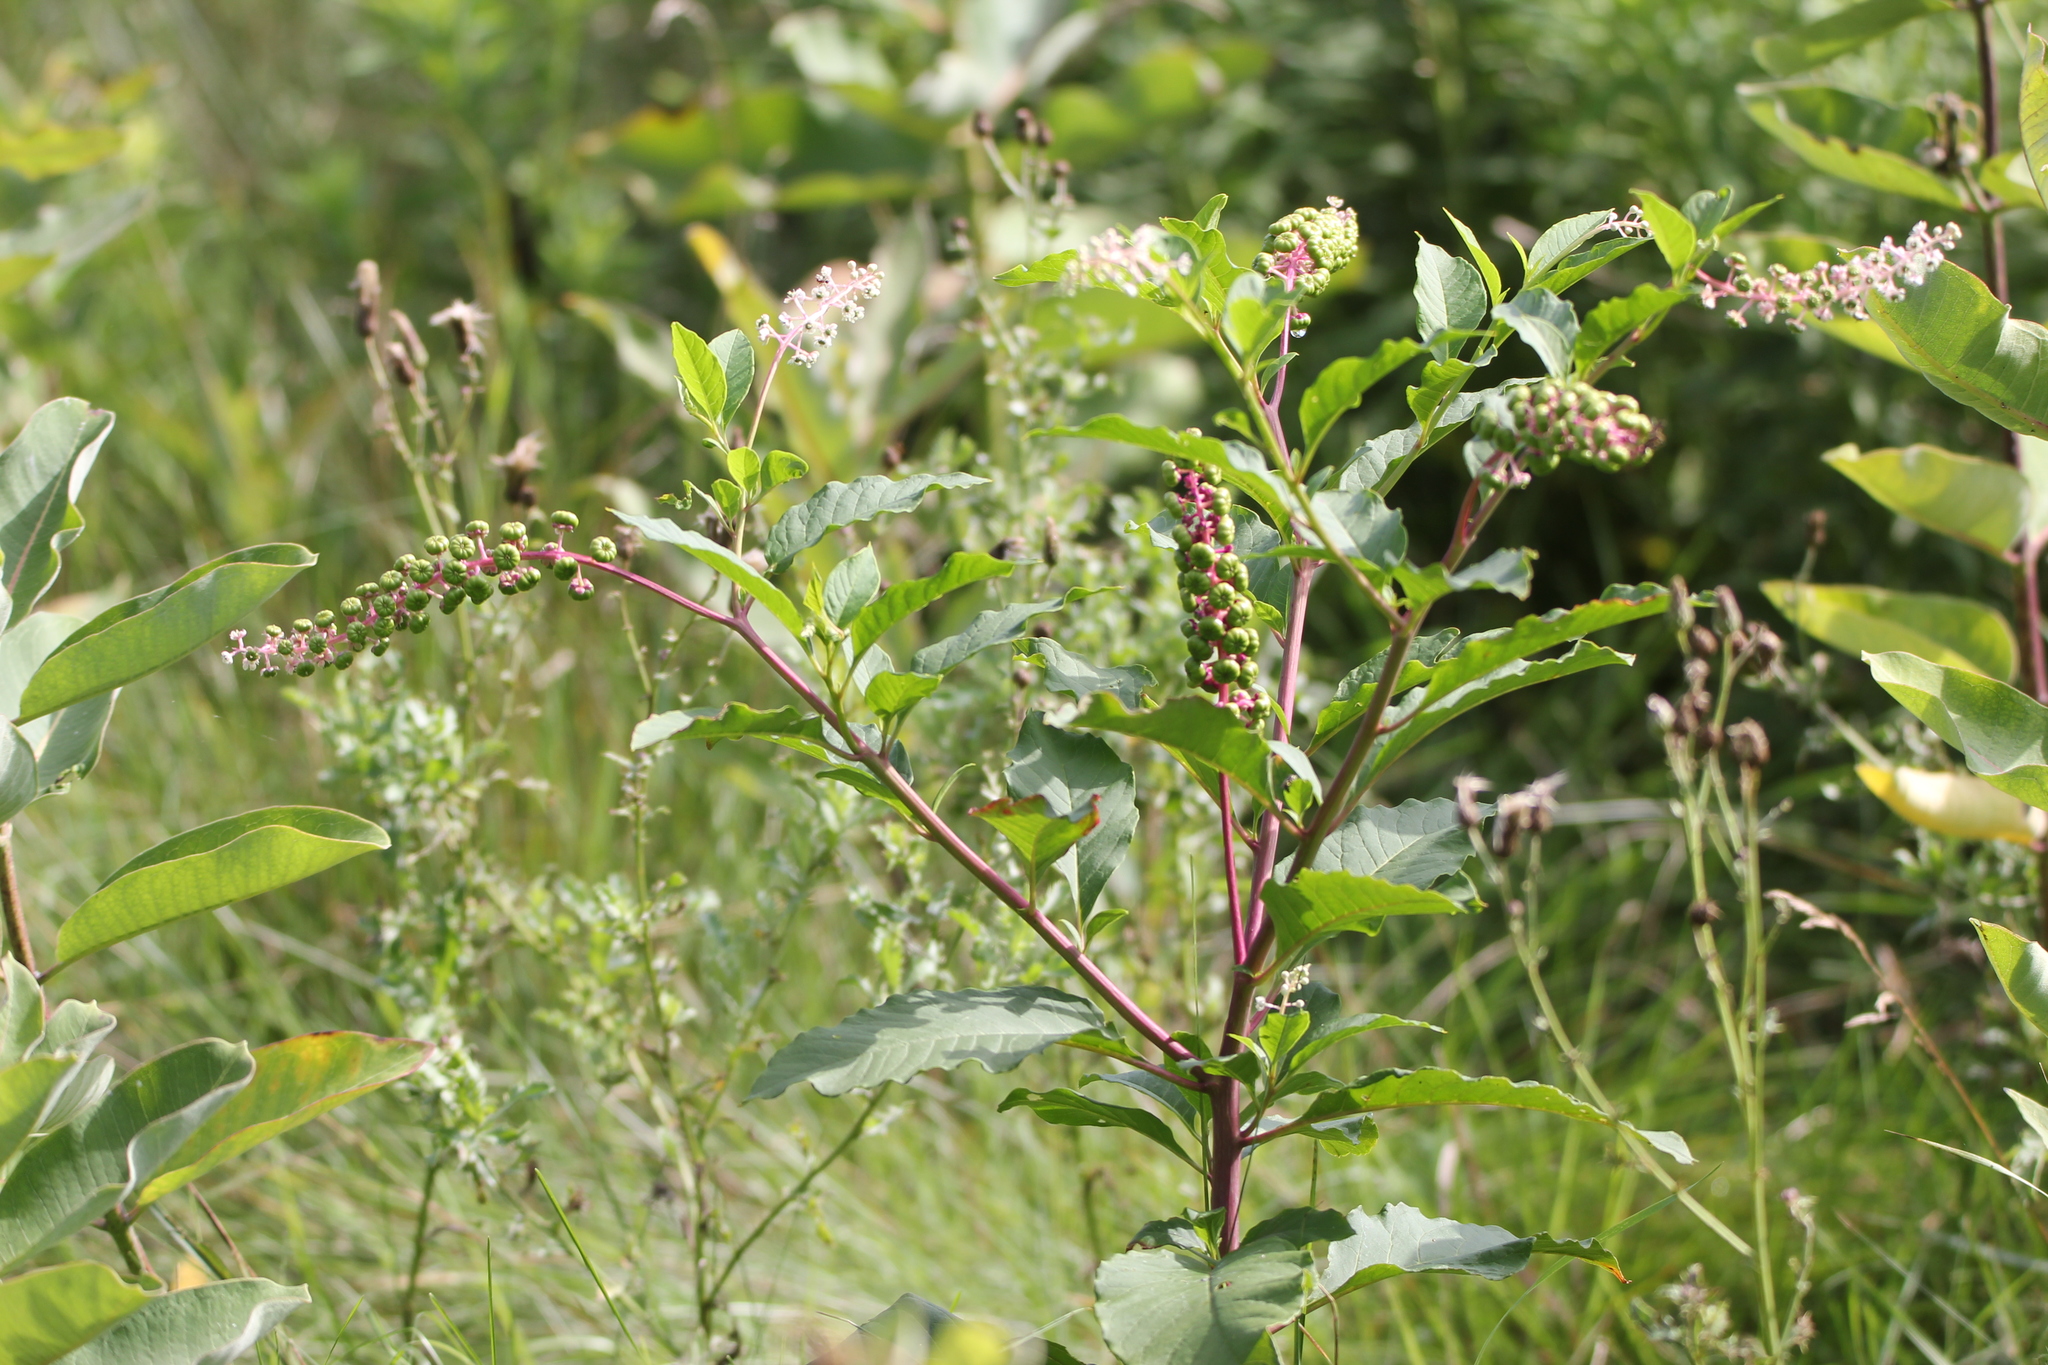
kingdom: Plantae
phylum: Tracheophyta
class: Magnoliopsida
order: Caryophyllales
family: Phytolaccaceae
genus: Phytolacca
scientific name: Phytolacca americana
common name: American pokeweed
